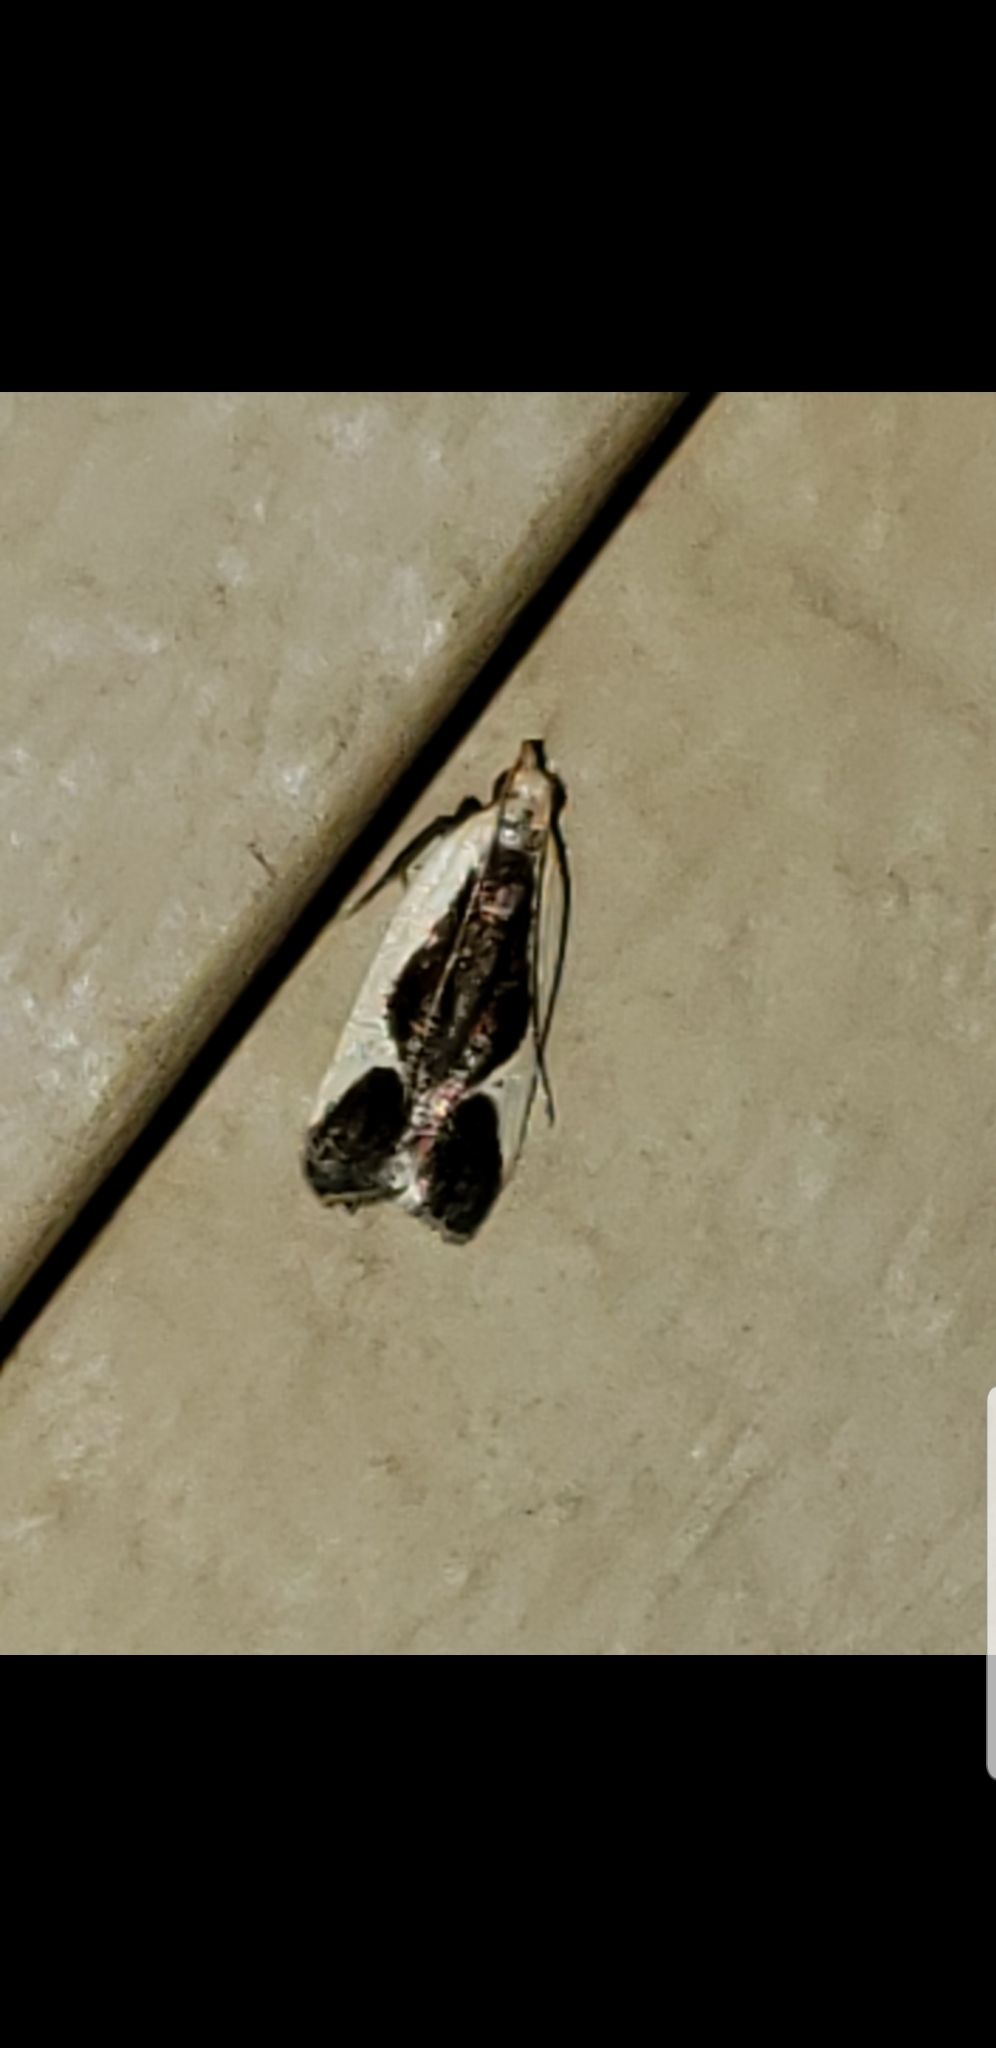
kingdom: Animalia
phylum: Arthropoda
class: Insecta
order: Lepidoptera
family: Gelechiidae
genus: Dichomeris
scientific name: Dichomeris flavocostella
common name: Cream-edged dichomeris moth
